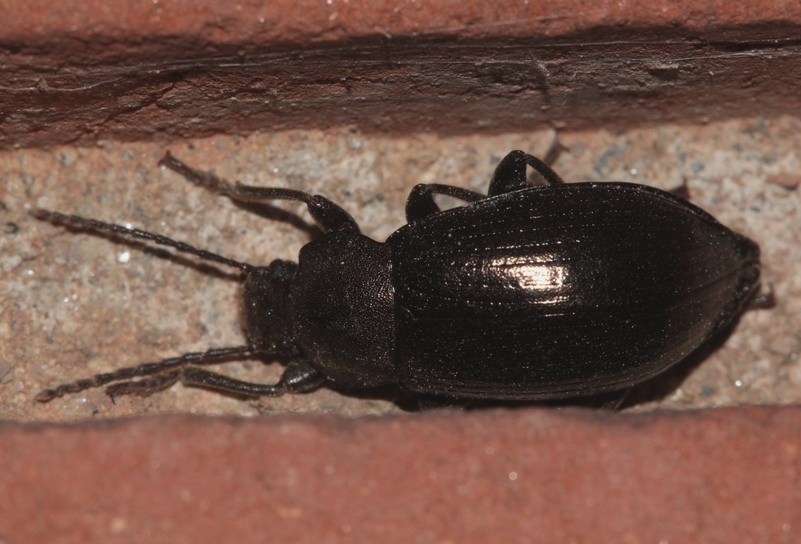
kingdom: Animalia
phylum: Arthropoda
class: Insecta
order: Coleoptera
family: Tenebrionidae
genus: Stenomax
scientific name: Stenomax aeneus
